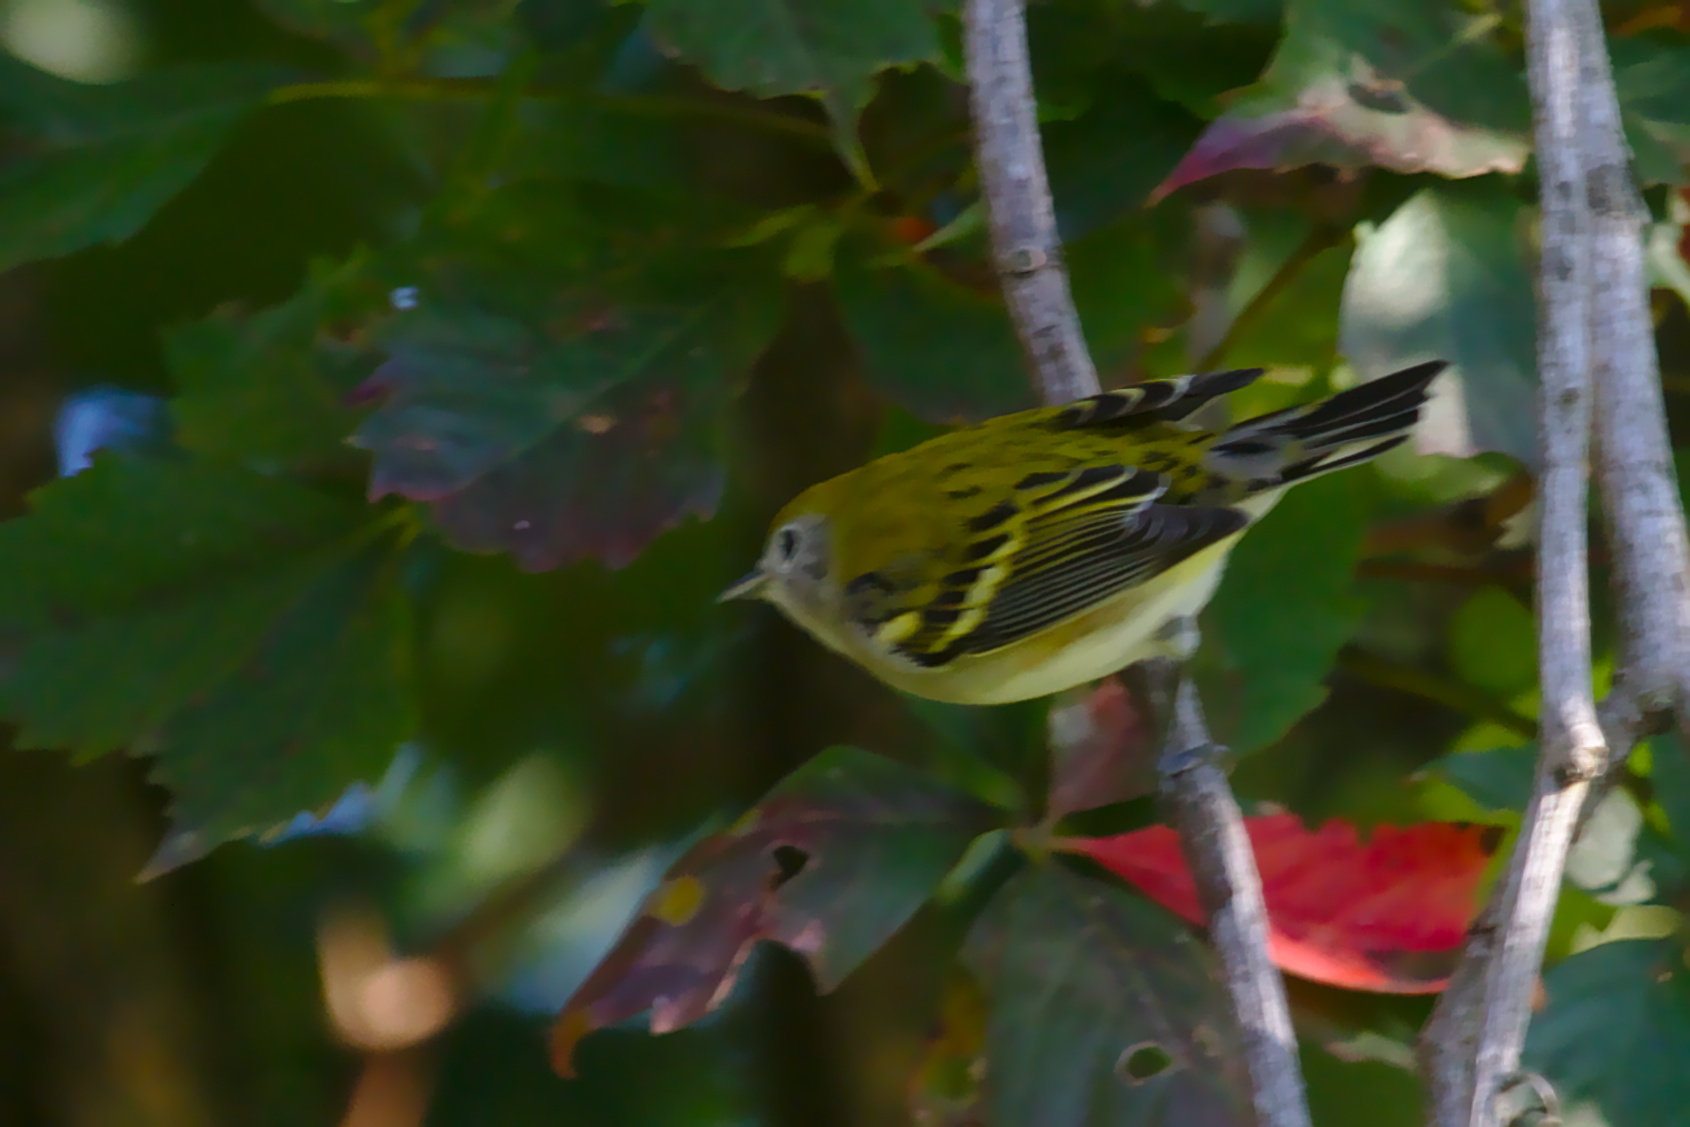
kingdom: Animalia
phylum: Chordata
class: Aves
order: Passeriformes
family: Parulidae
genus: Setophaga
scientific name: Setophaga pensylvanica
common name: Chestnut-sided warbler
